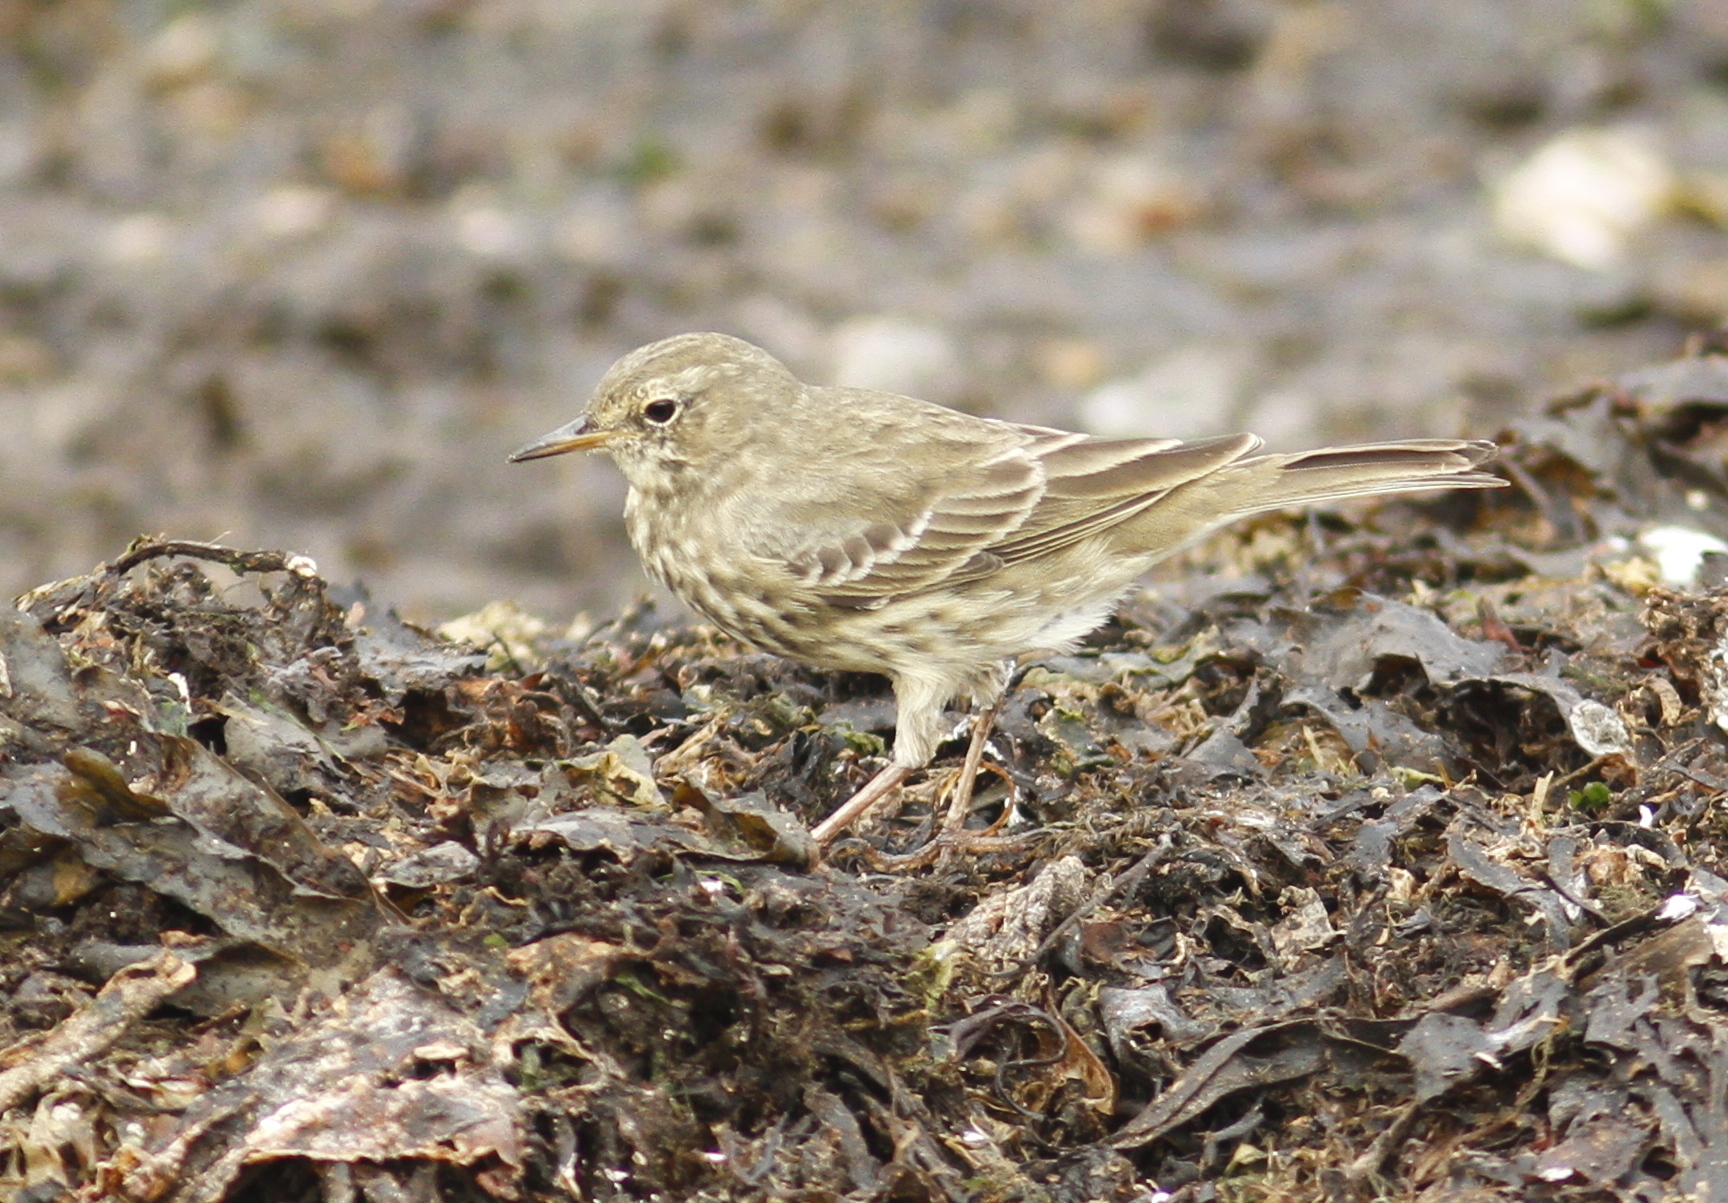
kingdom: Animalia
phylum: Chordata
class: Aves
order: Passeriformes
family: Motacillidae
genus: Anthus
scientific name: Anthus petrosus
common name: Eurasian rock pipit
